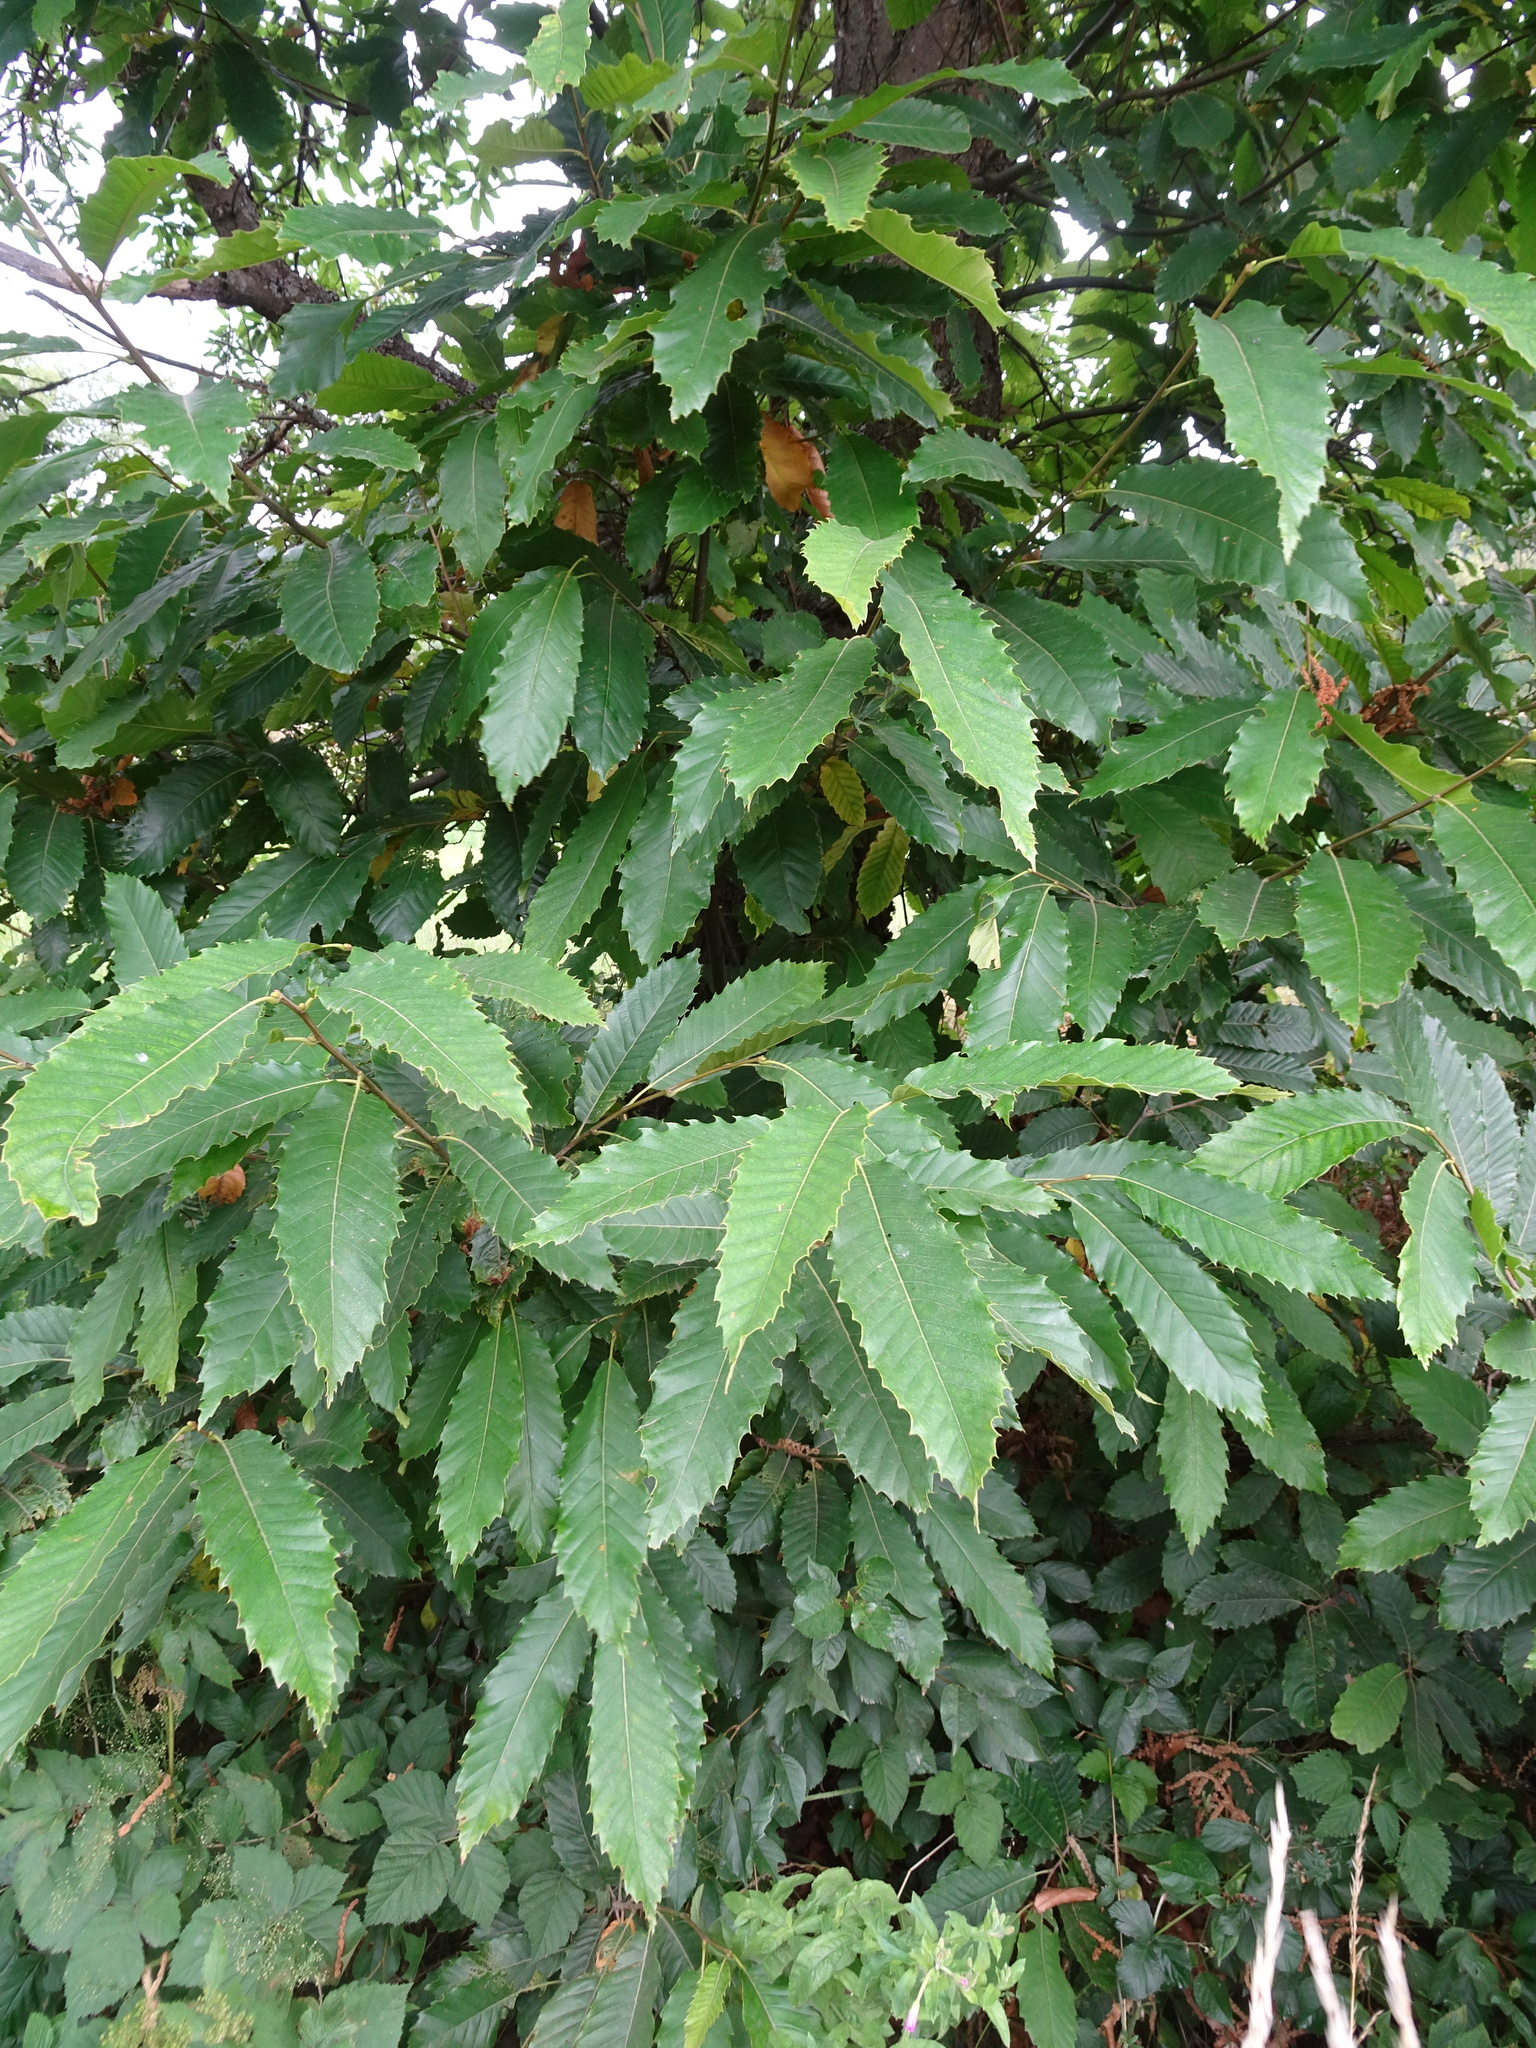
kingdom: Plantae
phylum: Tracheophyta
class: Magnoliopsida
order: Fagales
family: Fagaceae
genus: Castanea
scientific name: Castanea sativa
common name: Sweet chestnut
